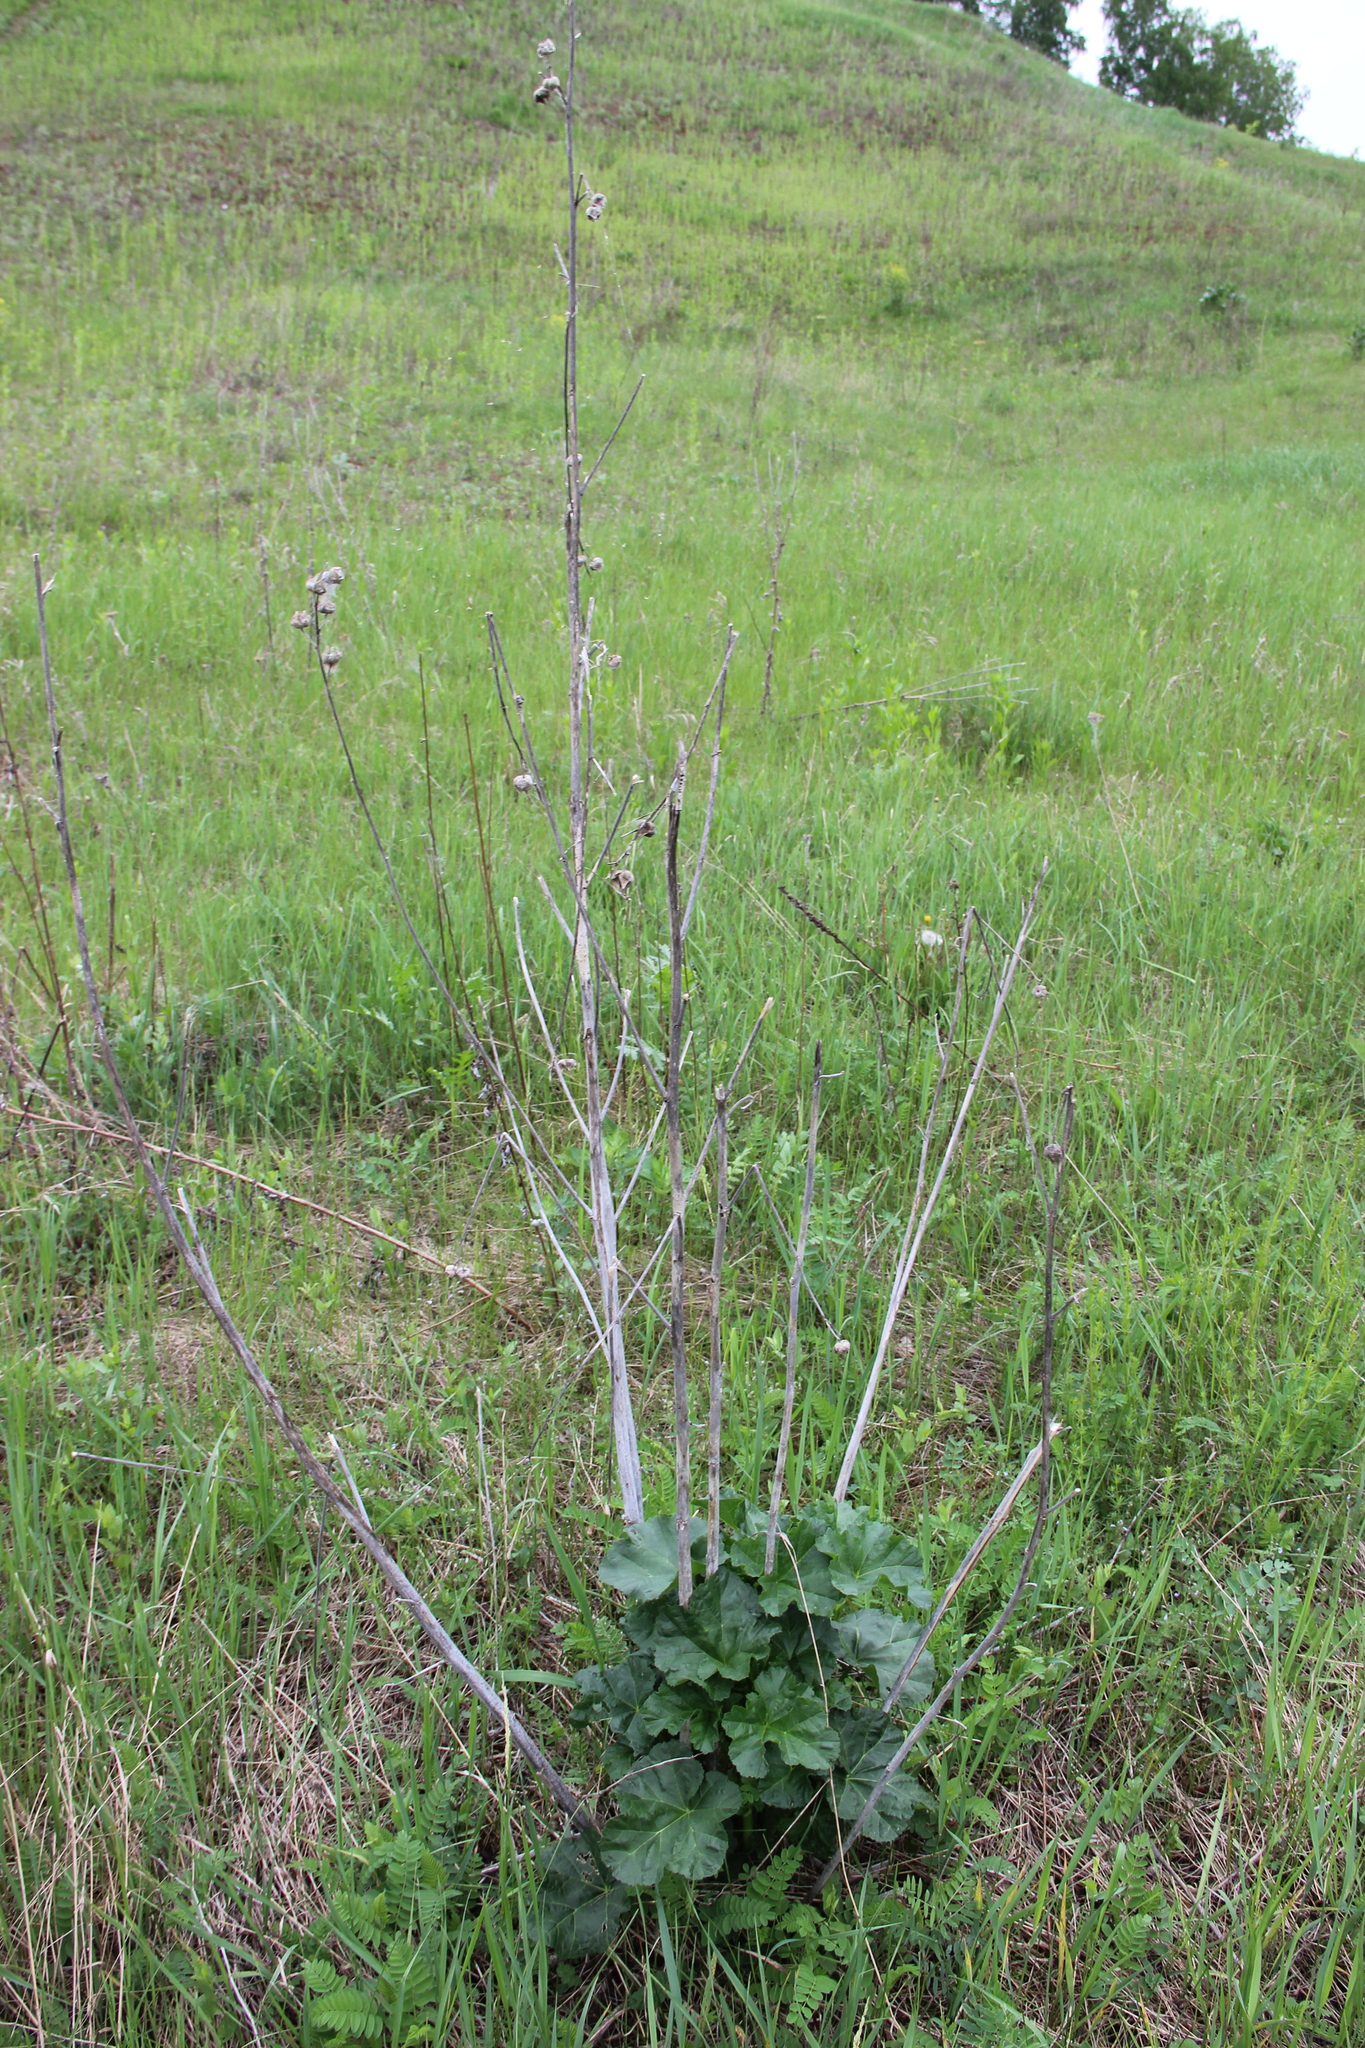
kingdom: Plantae
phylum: Tracheophyta
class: Magnoliopsida
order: Malvales
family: Malvaceae
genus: Malva
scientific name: Malva thuringiaca
